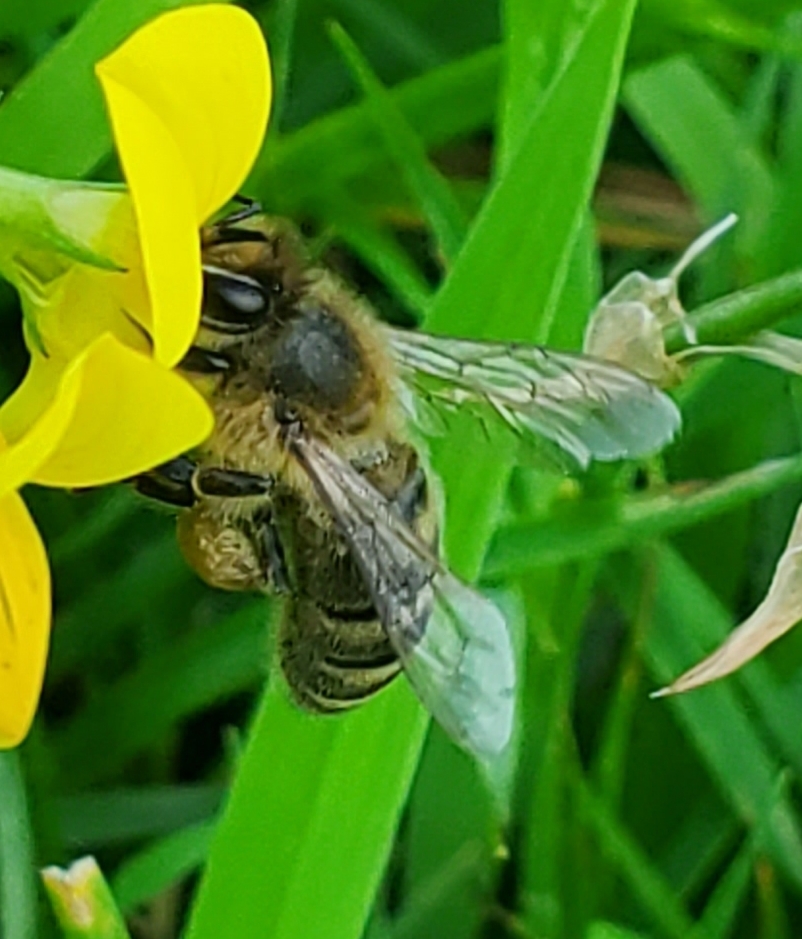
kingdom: Animalia
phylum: Arthropoda
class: Insecta
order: Hymenoptera
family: Apidae
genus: Apis
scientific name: Apis mellifera
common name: Honey bee
